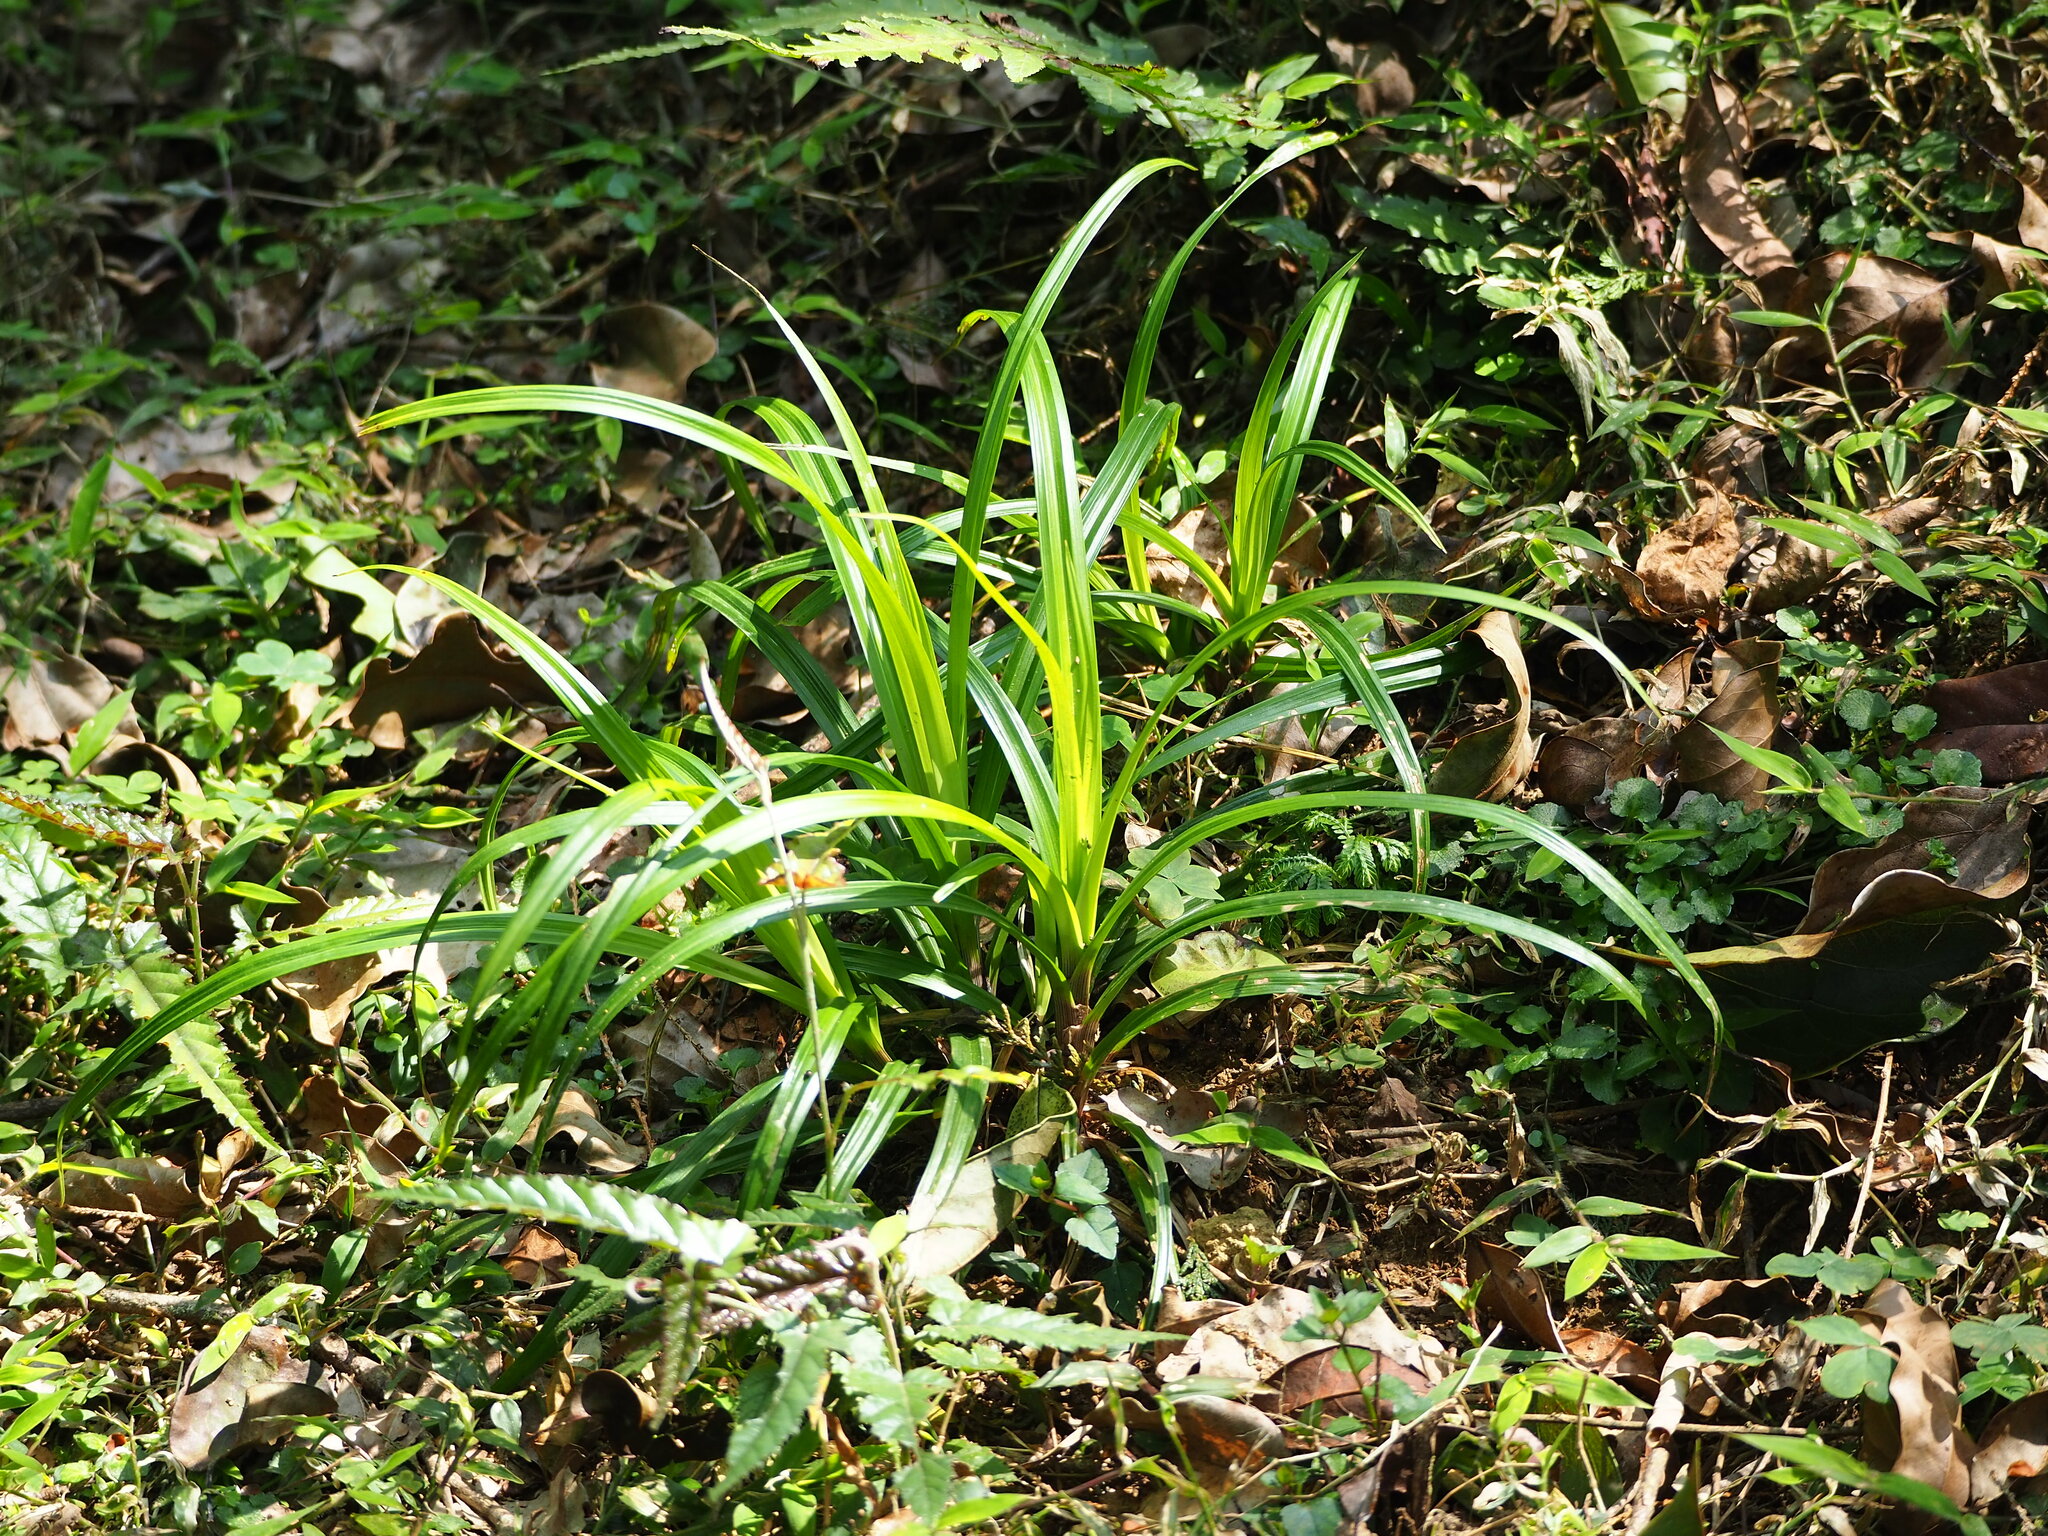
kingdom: Plantae
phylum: Tracheophyta
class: Liliopsida
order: Poales
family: Cyperaceae
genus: Carex
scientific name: Carex filicina
